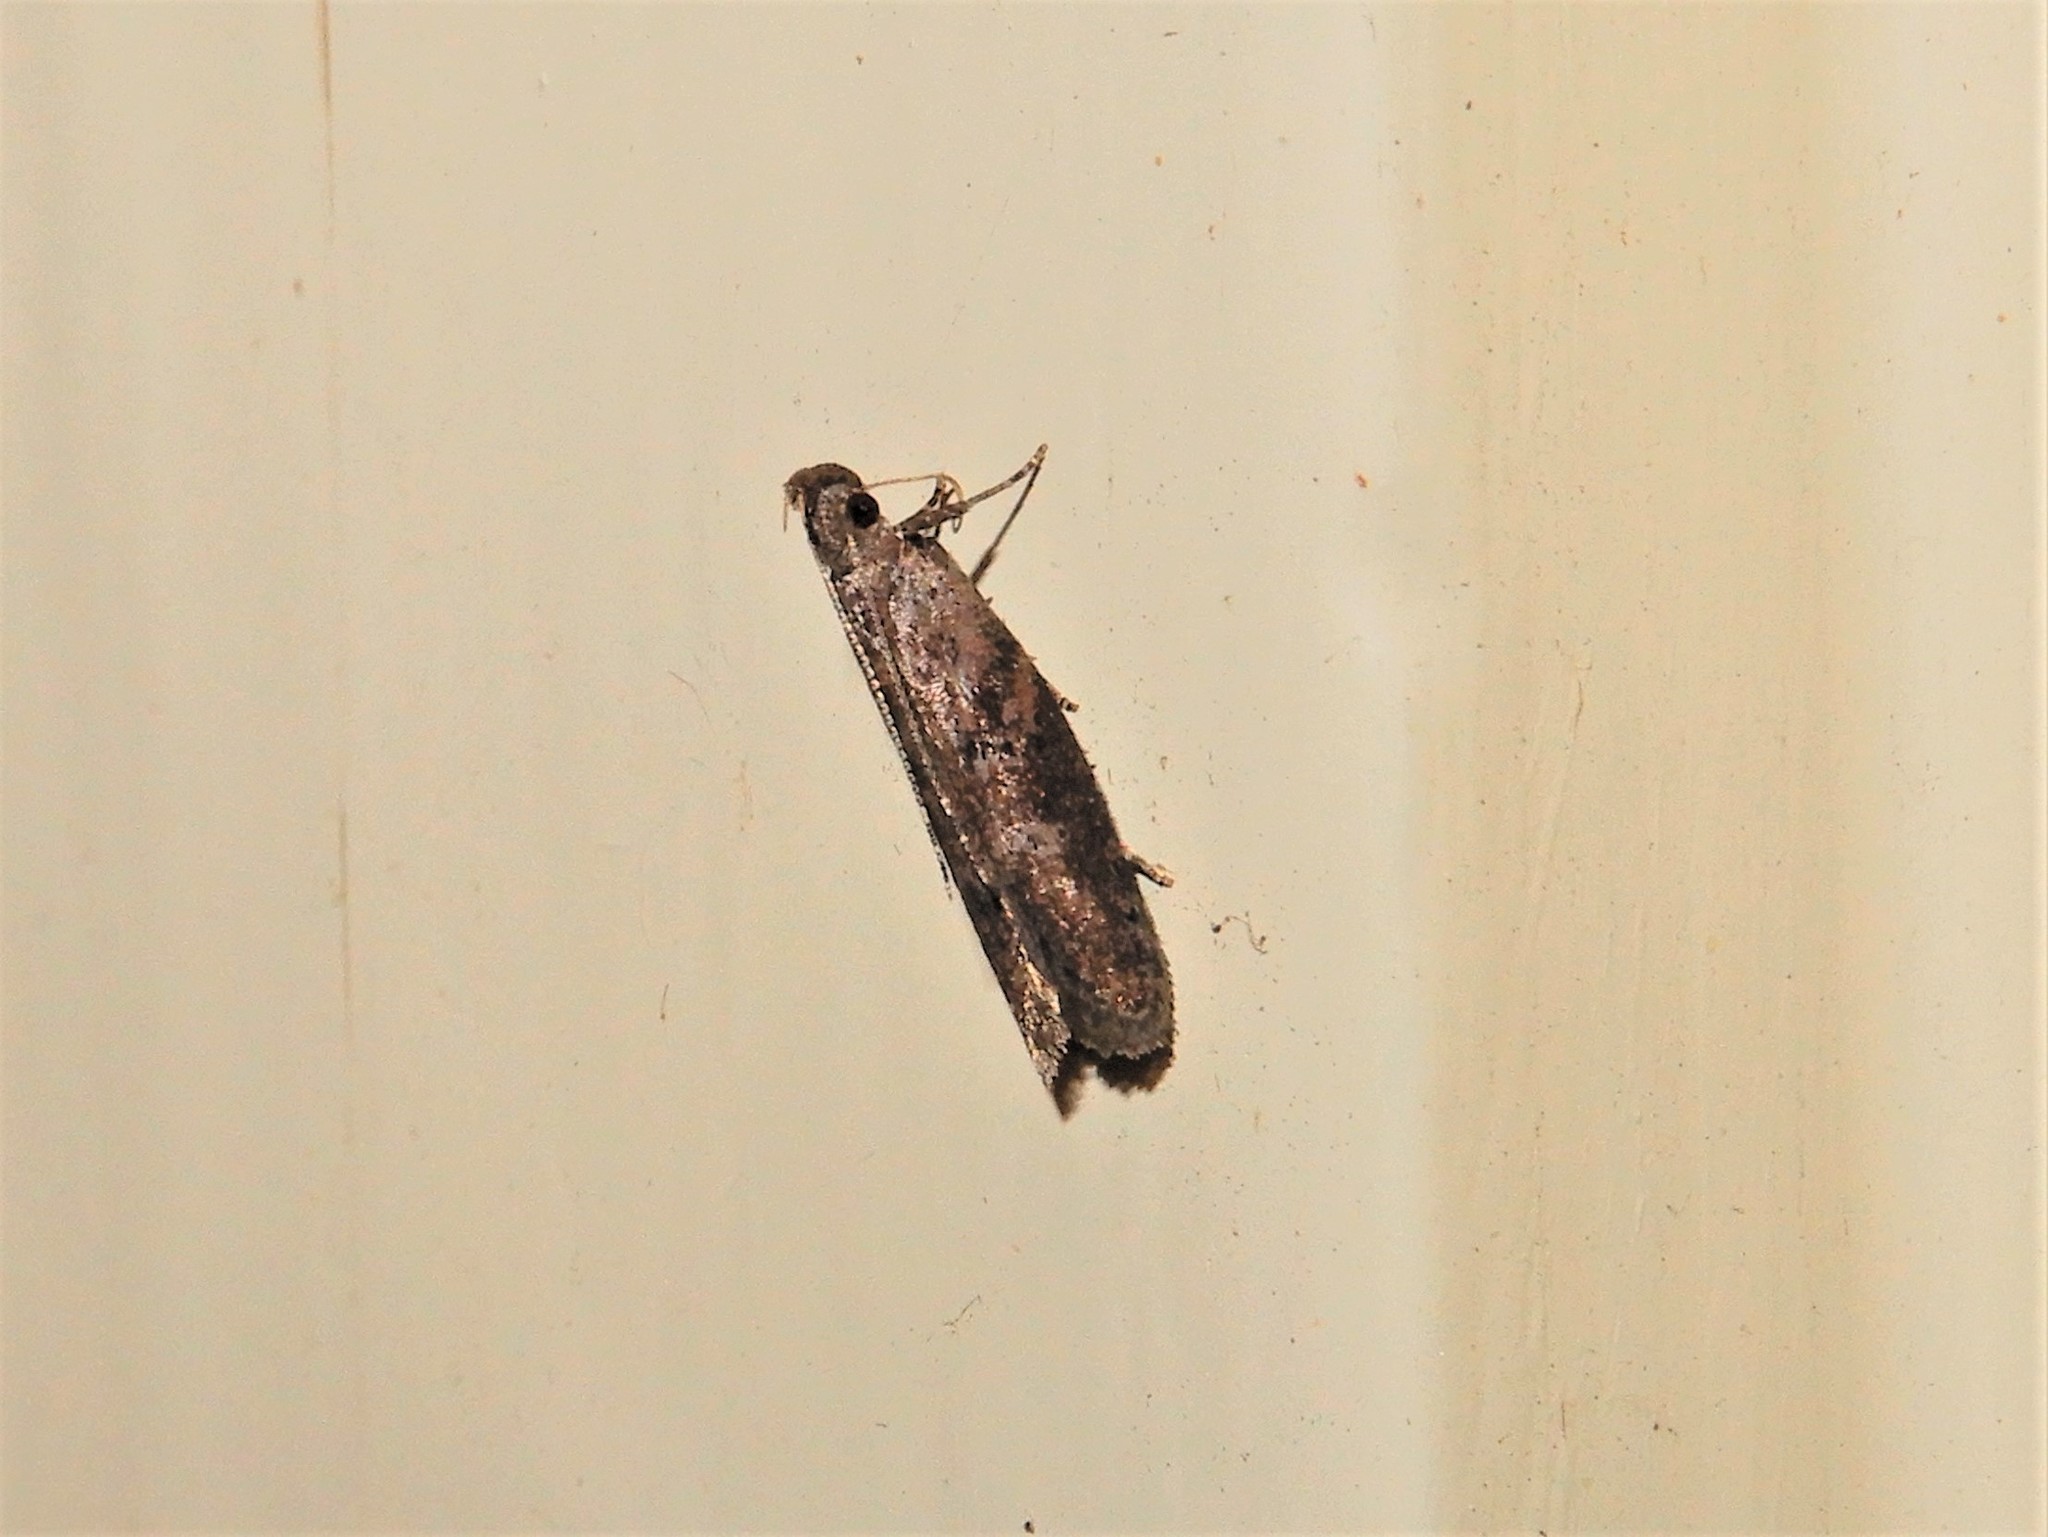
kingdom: Animalia
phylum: Arthropoda
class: Insecta
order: Lepidoptera
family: Depressariidae
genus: Eutorna
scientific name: Eutorna phaulocosma
